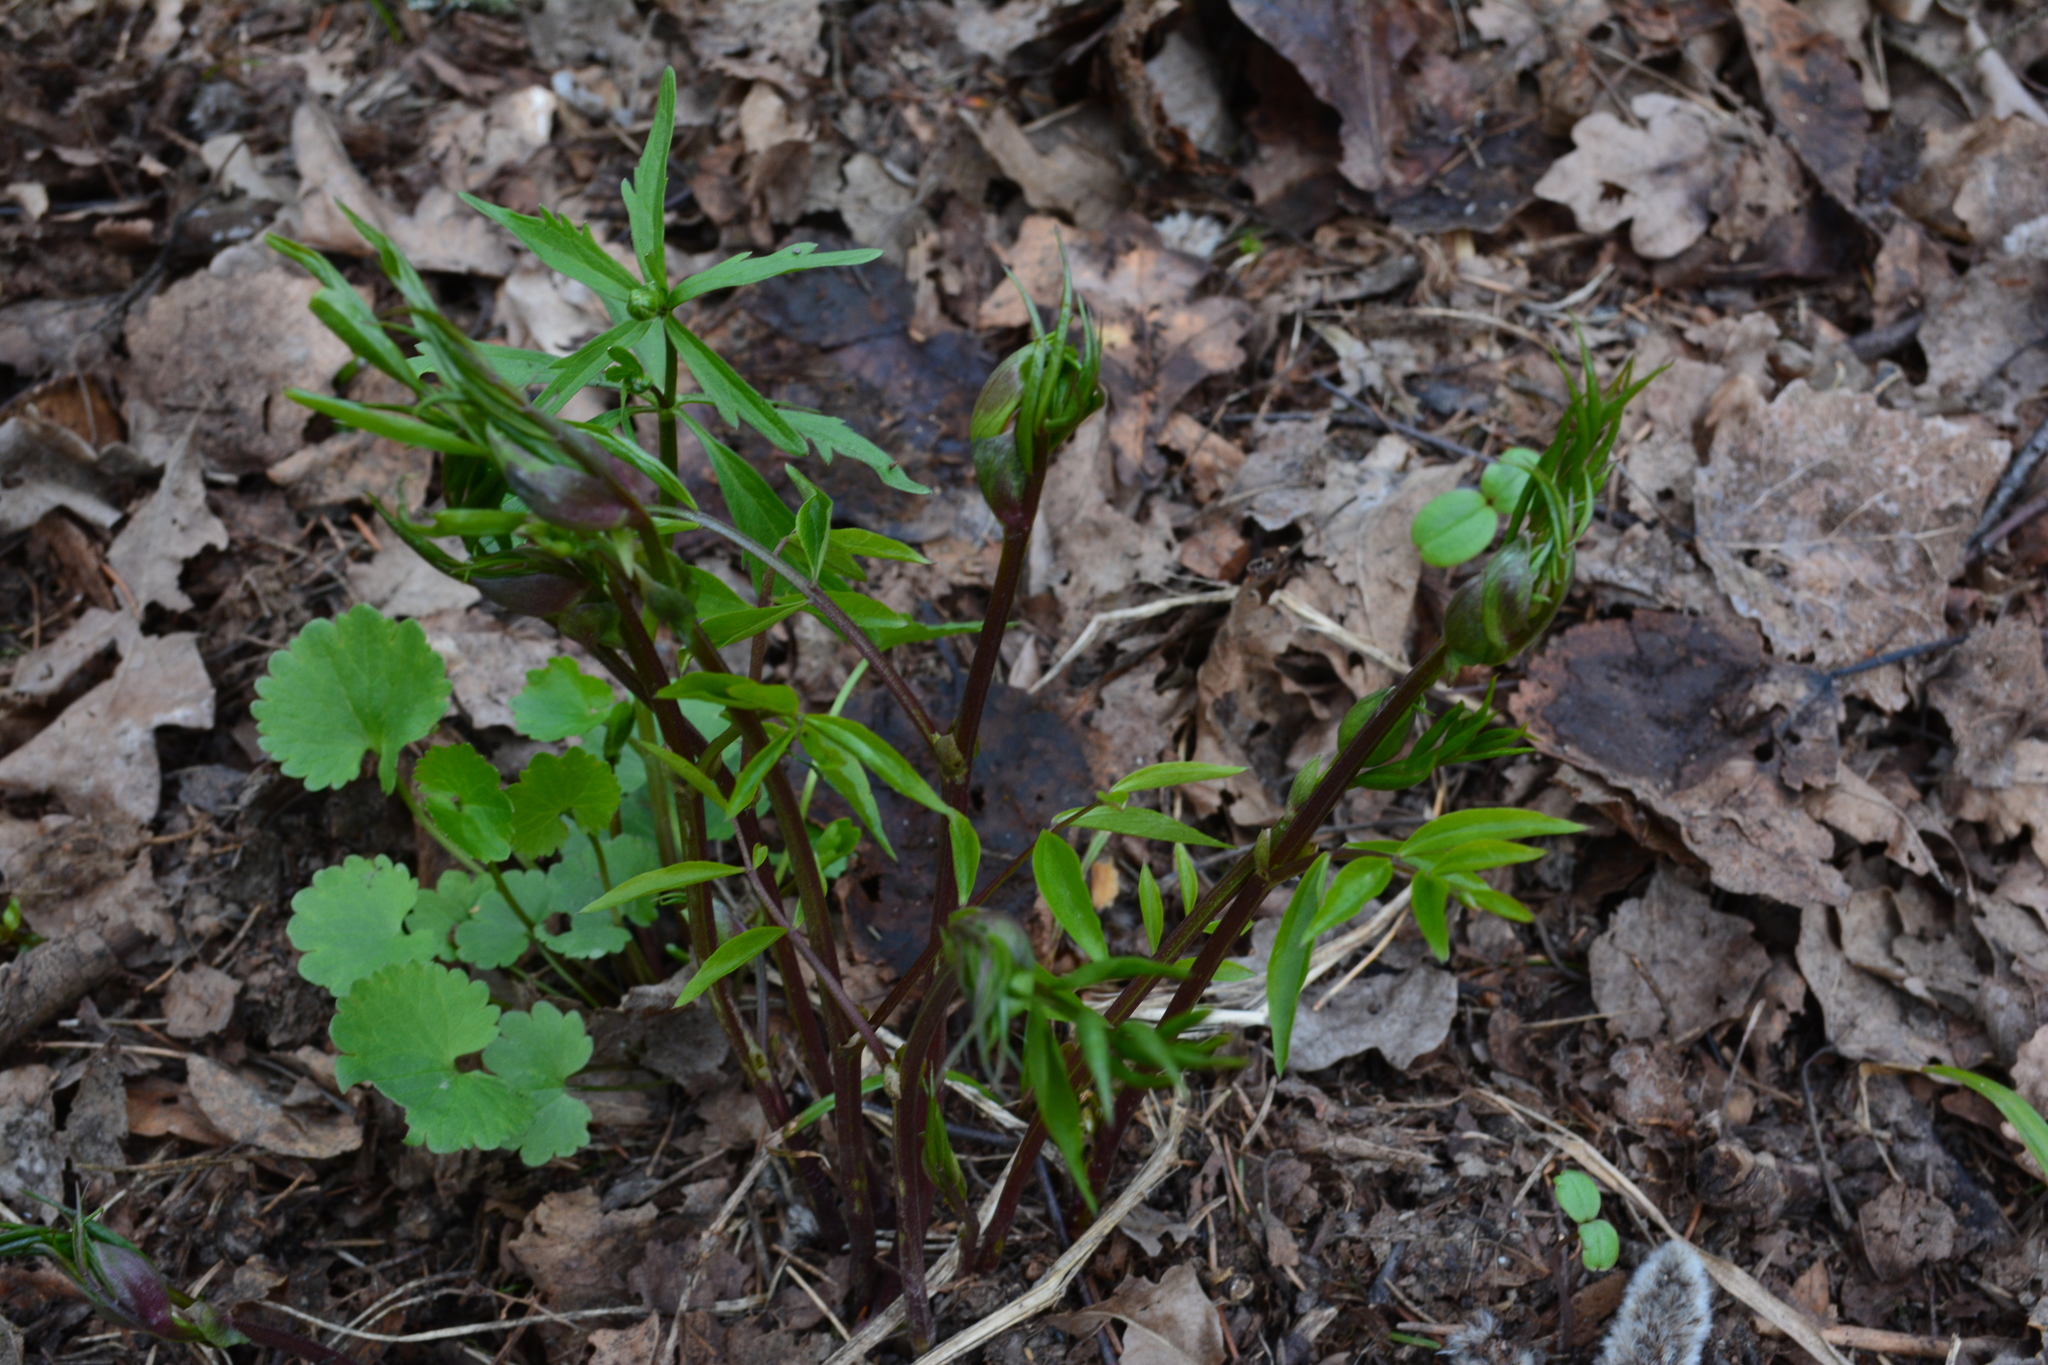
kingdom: Plantae
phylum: Tracheophyta
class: Magnoliopsida
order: Fabales
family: Fabaceae
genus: Lathyrus
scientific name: Lathyrus vernus
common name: Spring pea
